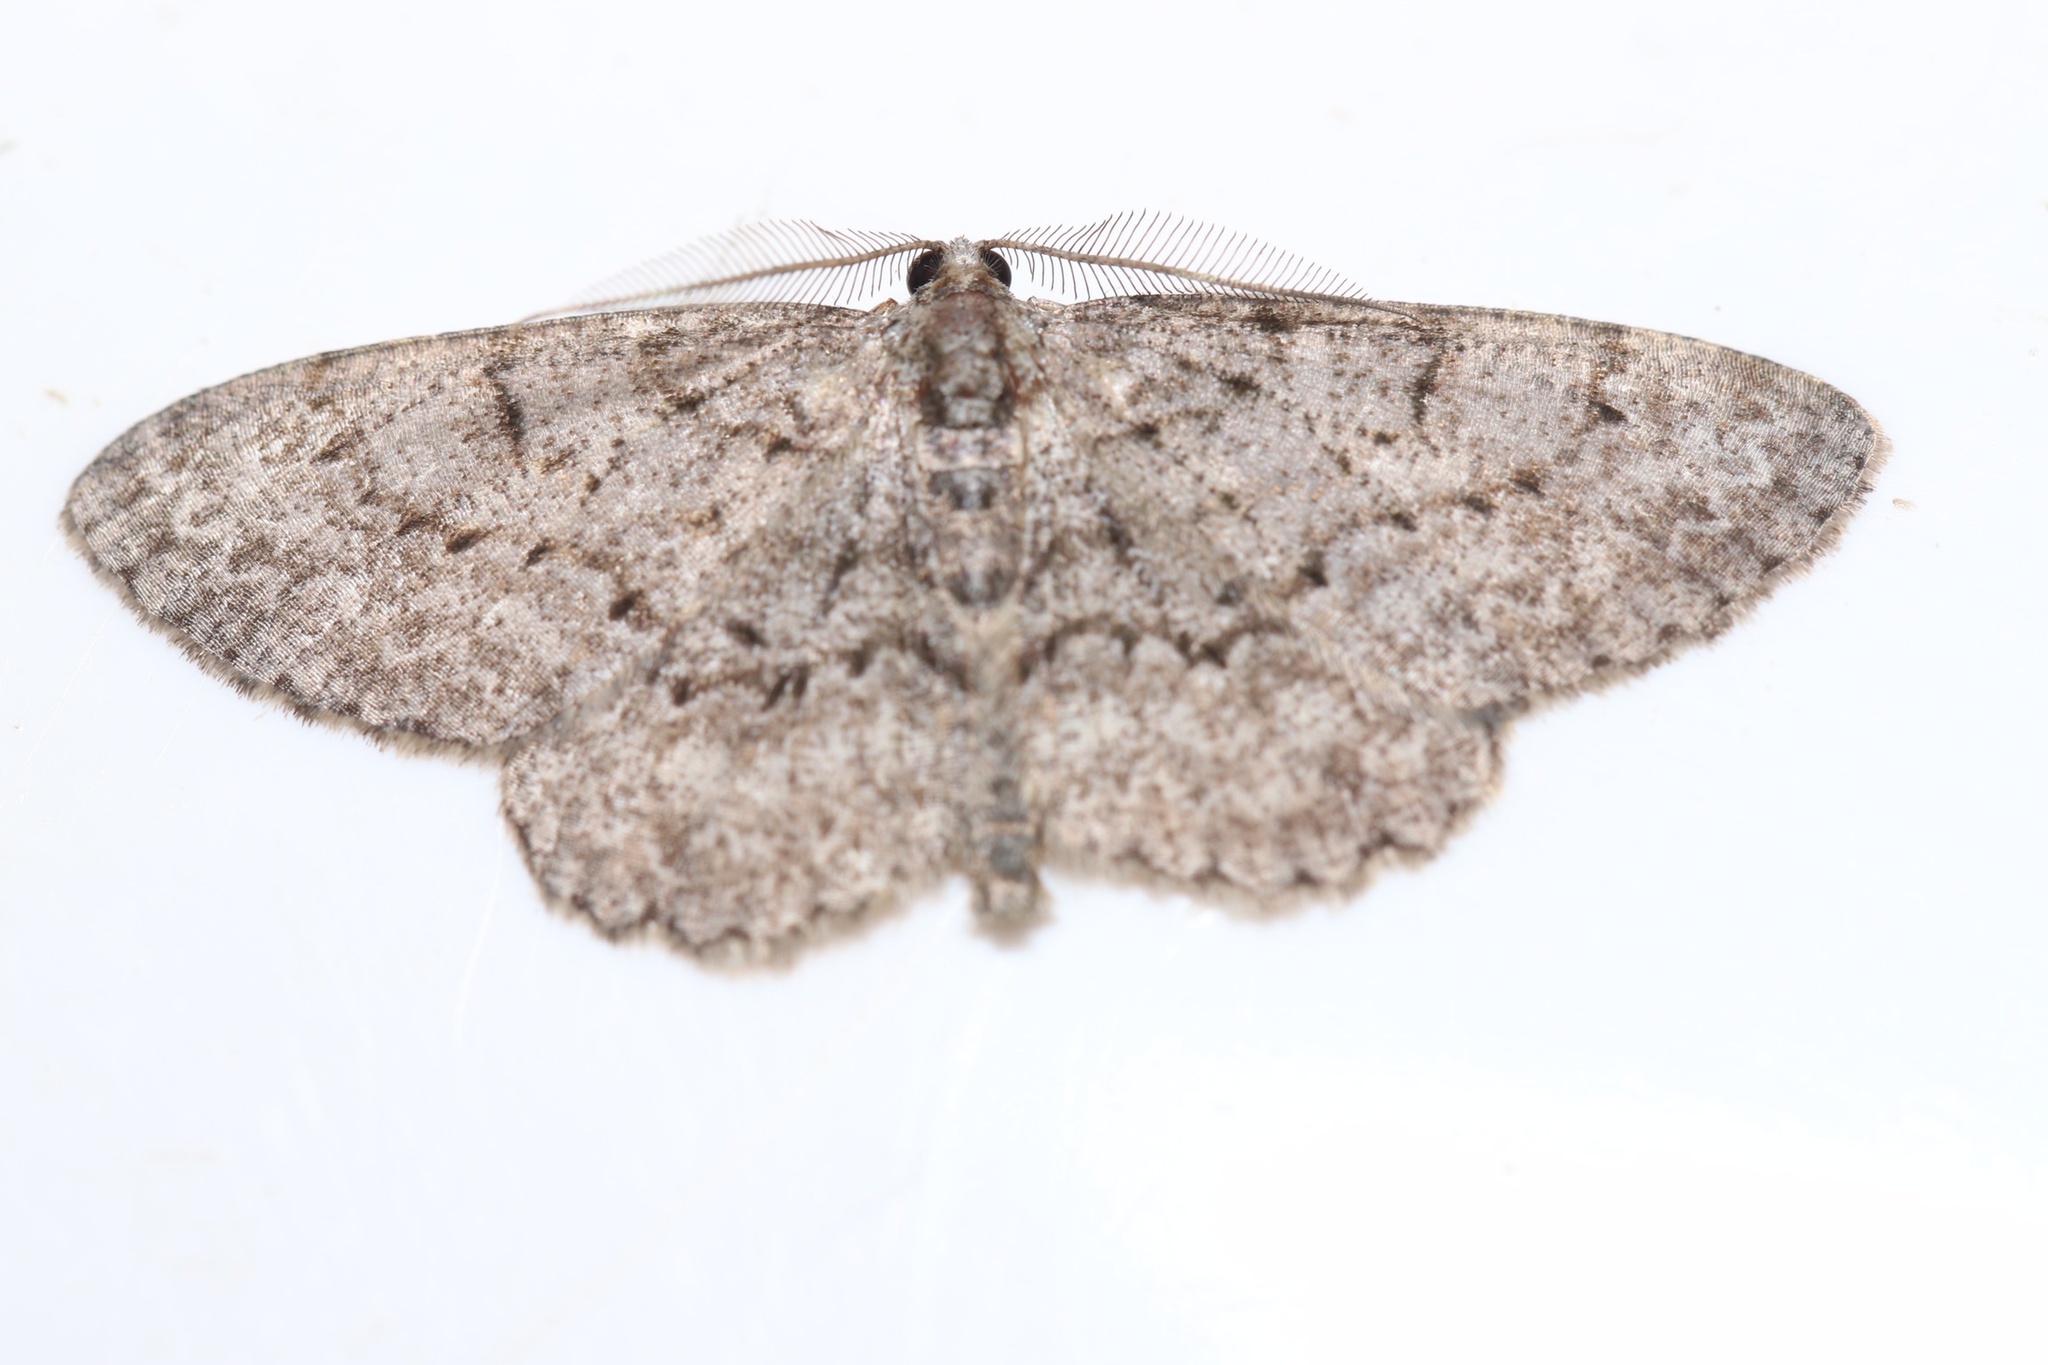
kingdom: Animalia
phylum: Arthropoda
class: Insecta
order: Lepidoptera
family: Geometridae
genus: Protoboarmia
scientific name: Protoboarmia porcelaria
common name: Porcelain gray
